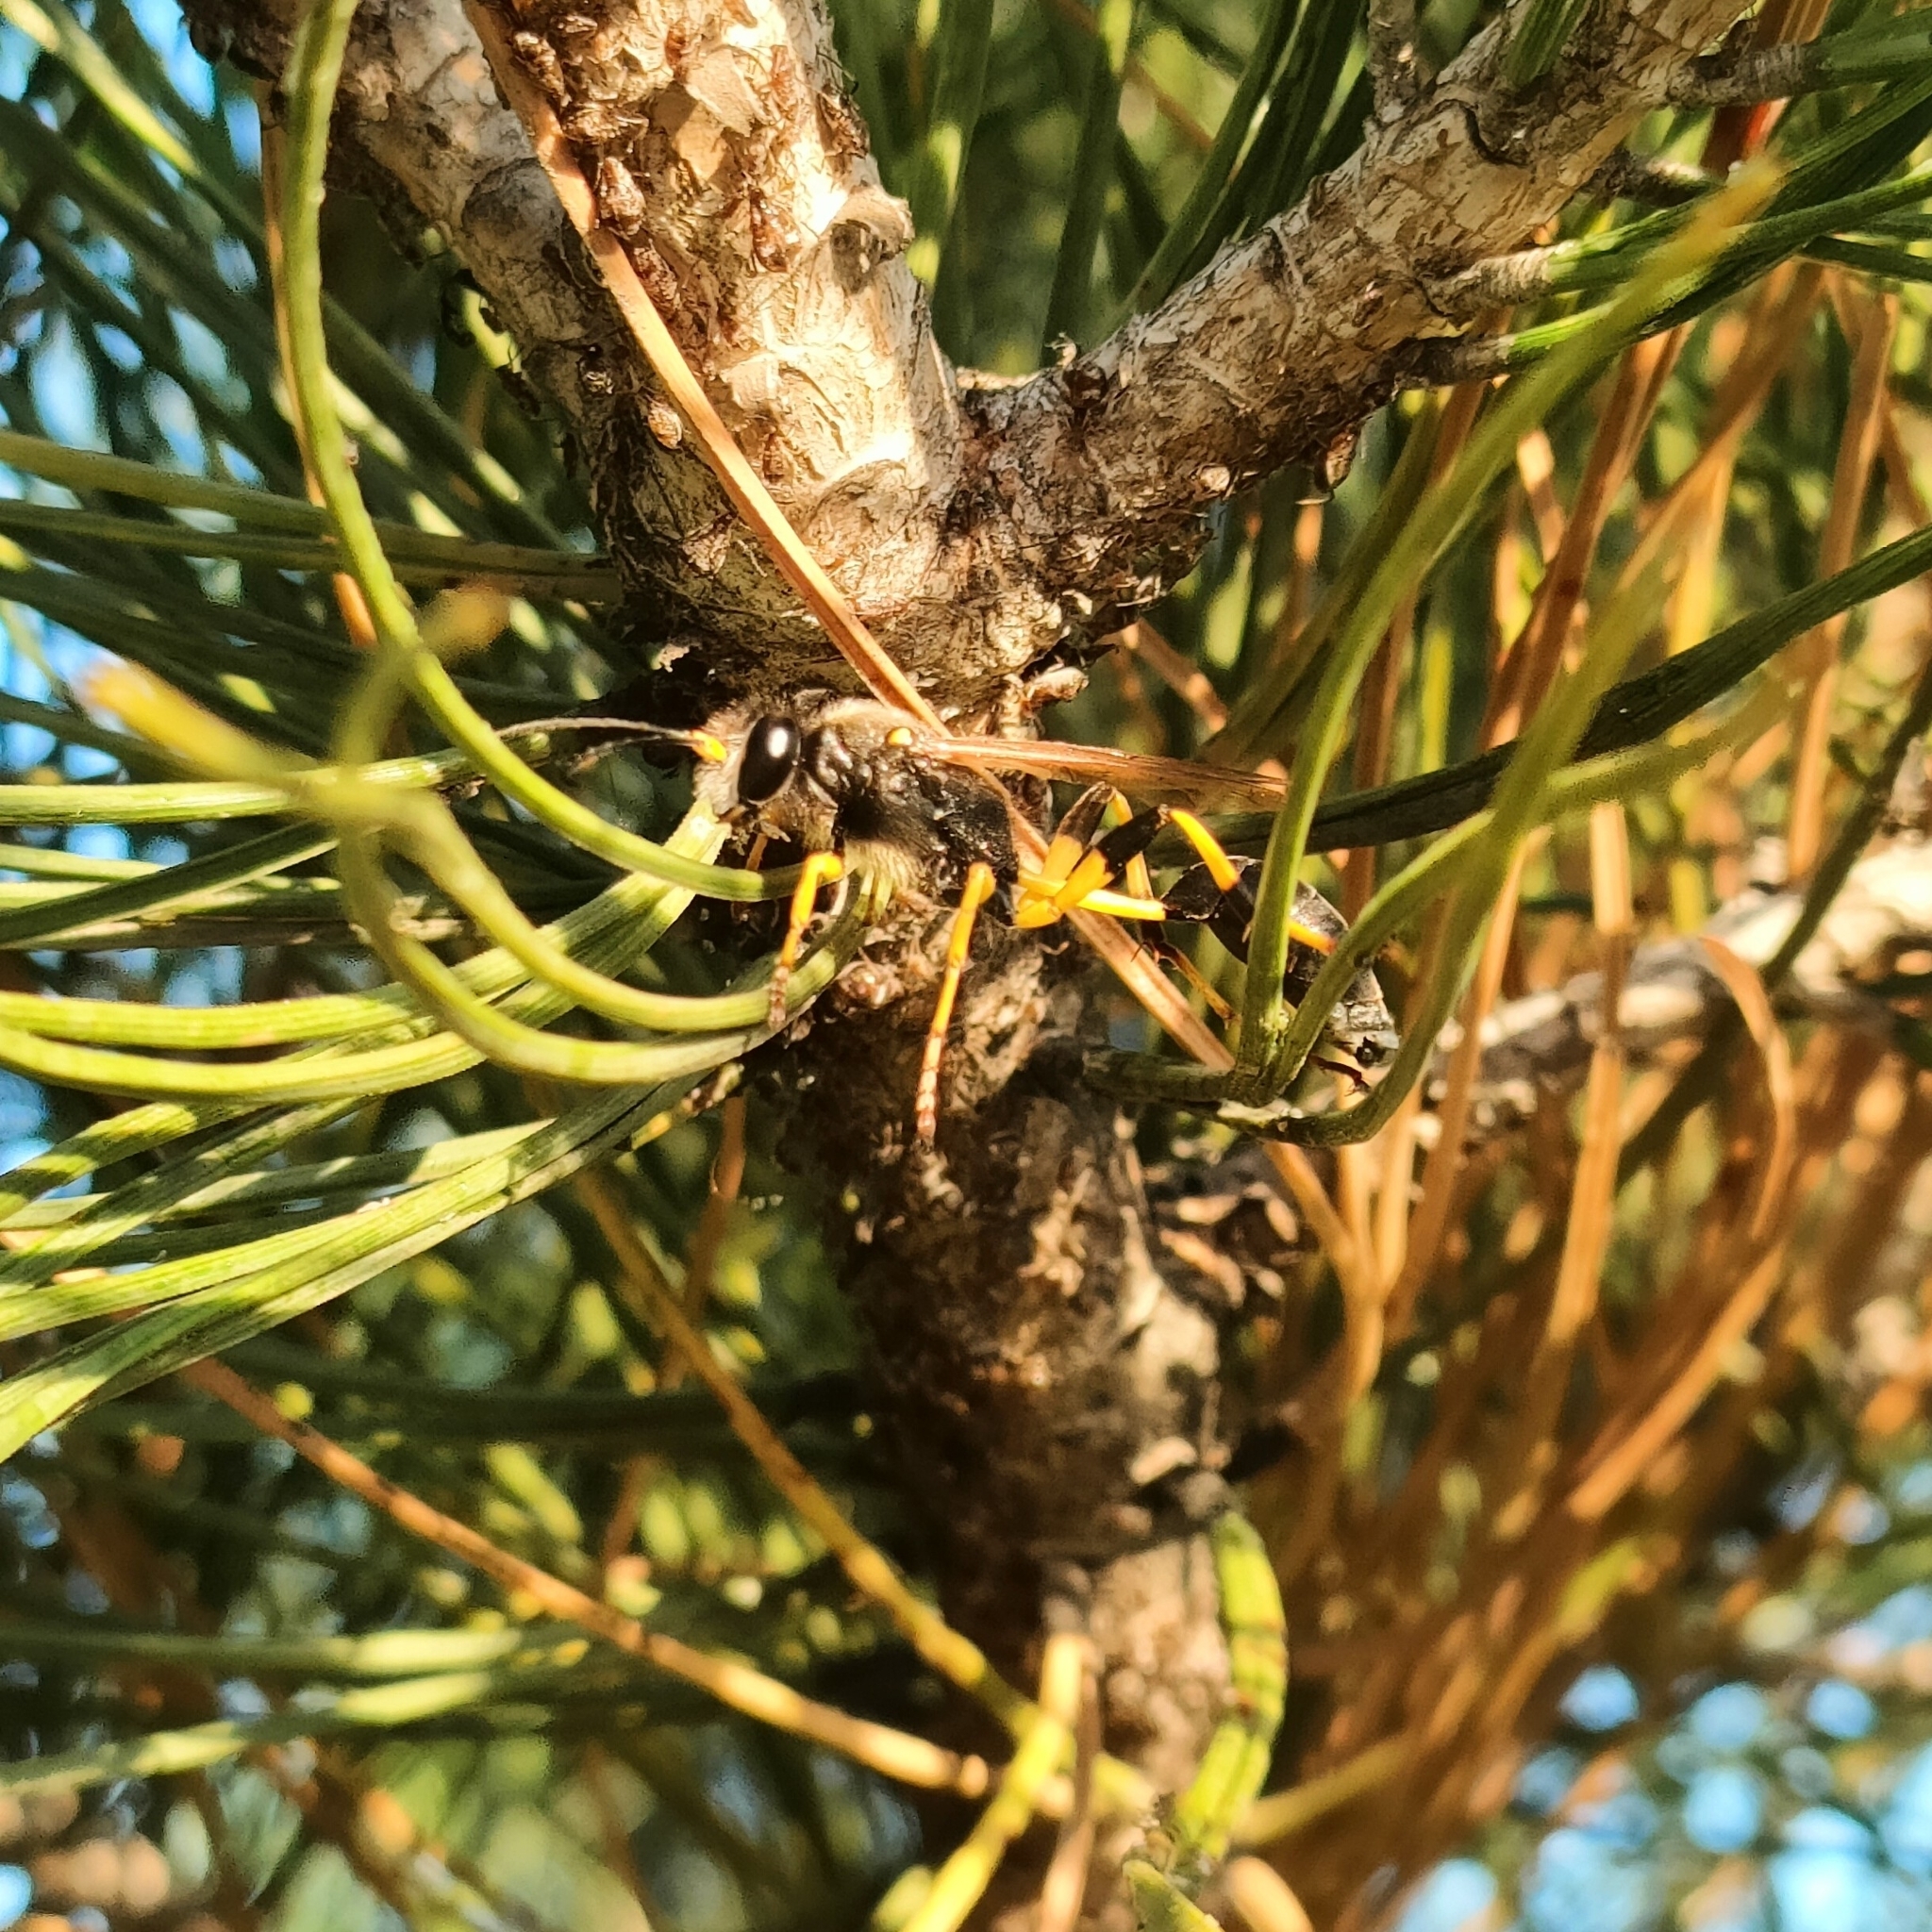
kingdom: Animalia
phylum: Arthropoda
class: Insecta
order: Hymenoptera
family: Sphecidae
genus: Sceliphron
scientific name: Sceliphron destillatorium
